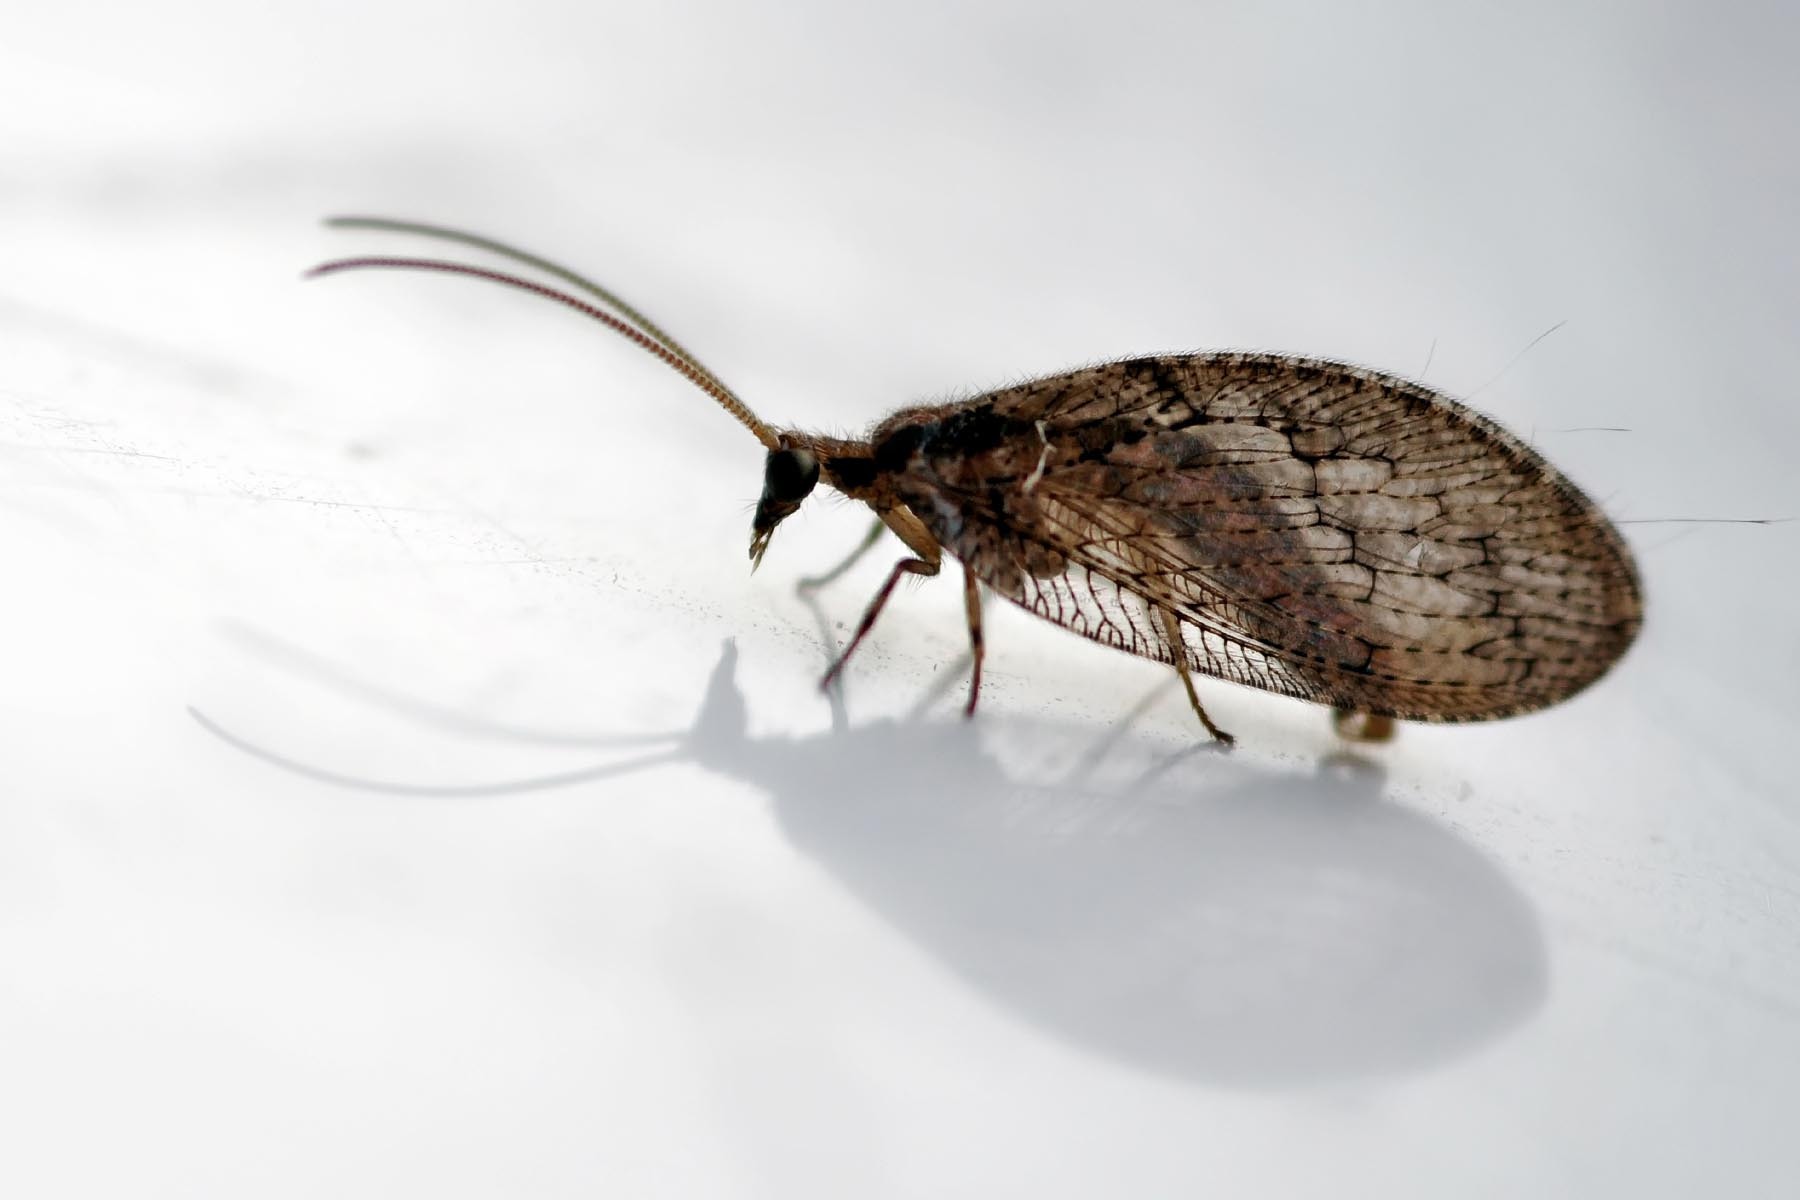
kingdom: Animalia
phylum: Arthropoda
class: Insecta
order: Neuroptera
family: Hemerobiidae
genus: Wesmaelius
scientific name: Wesmaelius subnebulosus
